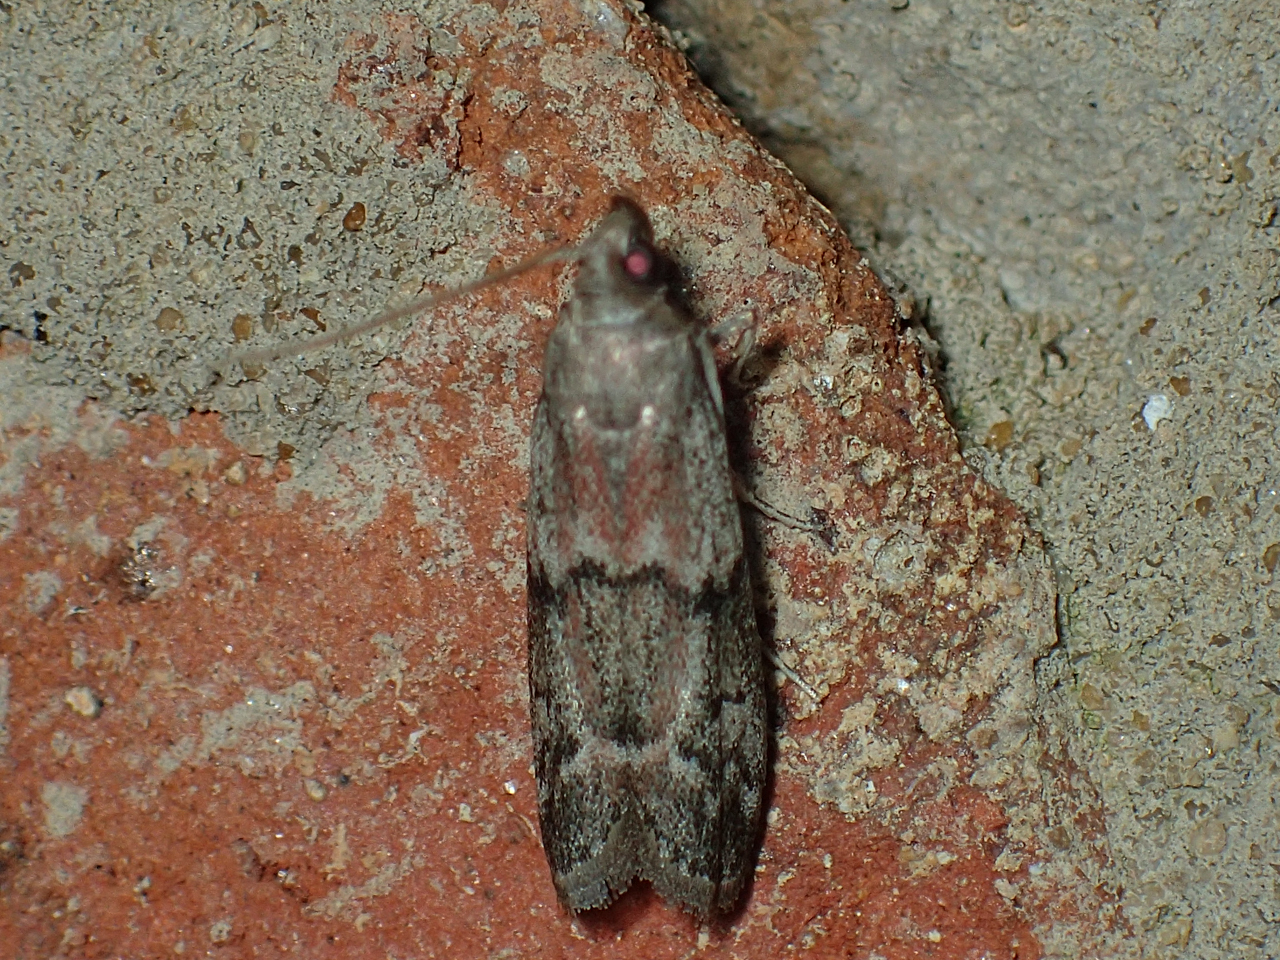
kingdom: Animalia
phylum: Arthropoda
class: Insecta
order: Lepidoptera
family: Pyralidae
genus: Vitula
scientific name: Vitula edmandsii
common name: Dried fruit moth
